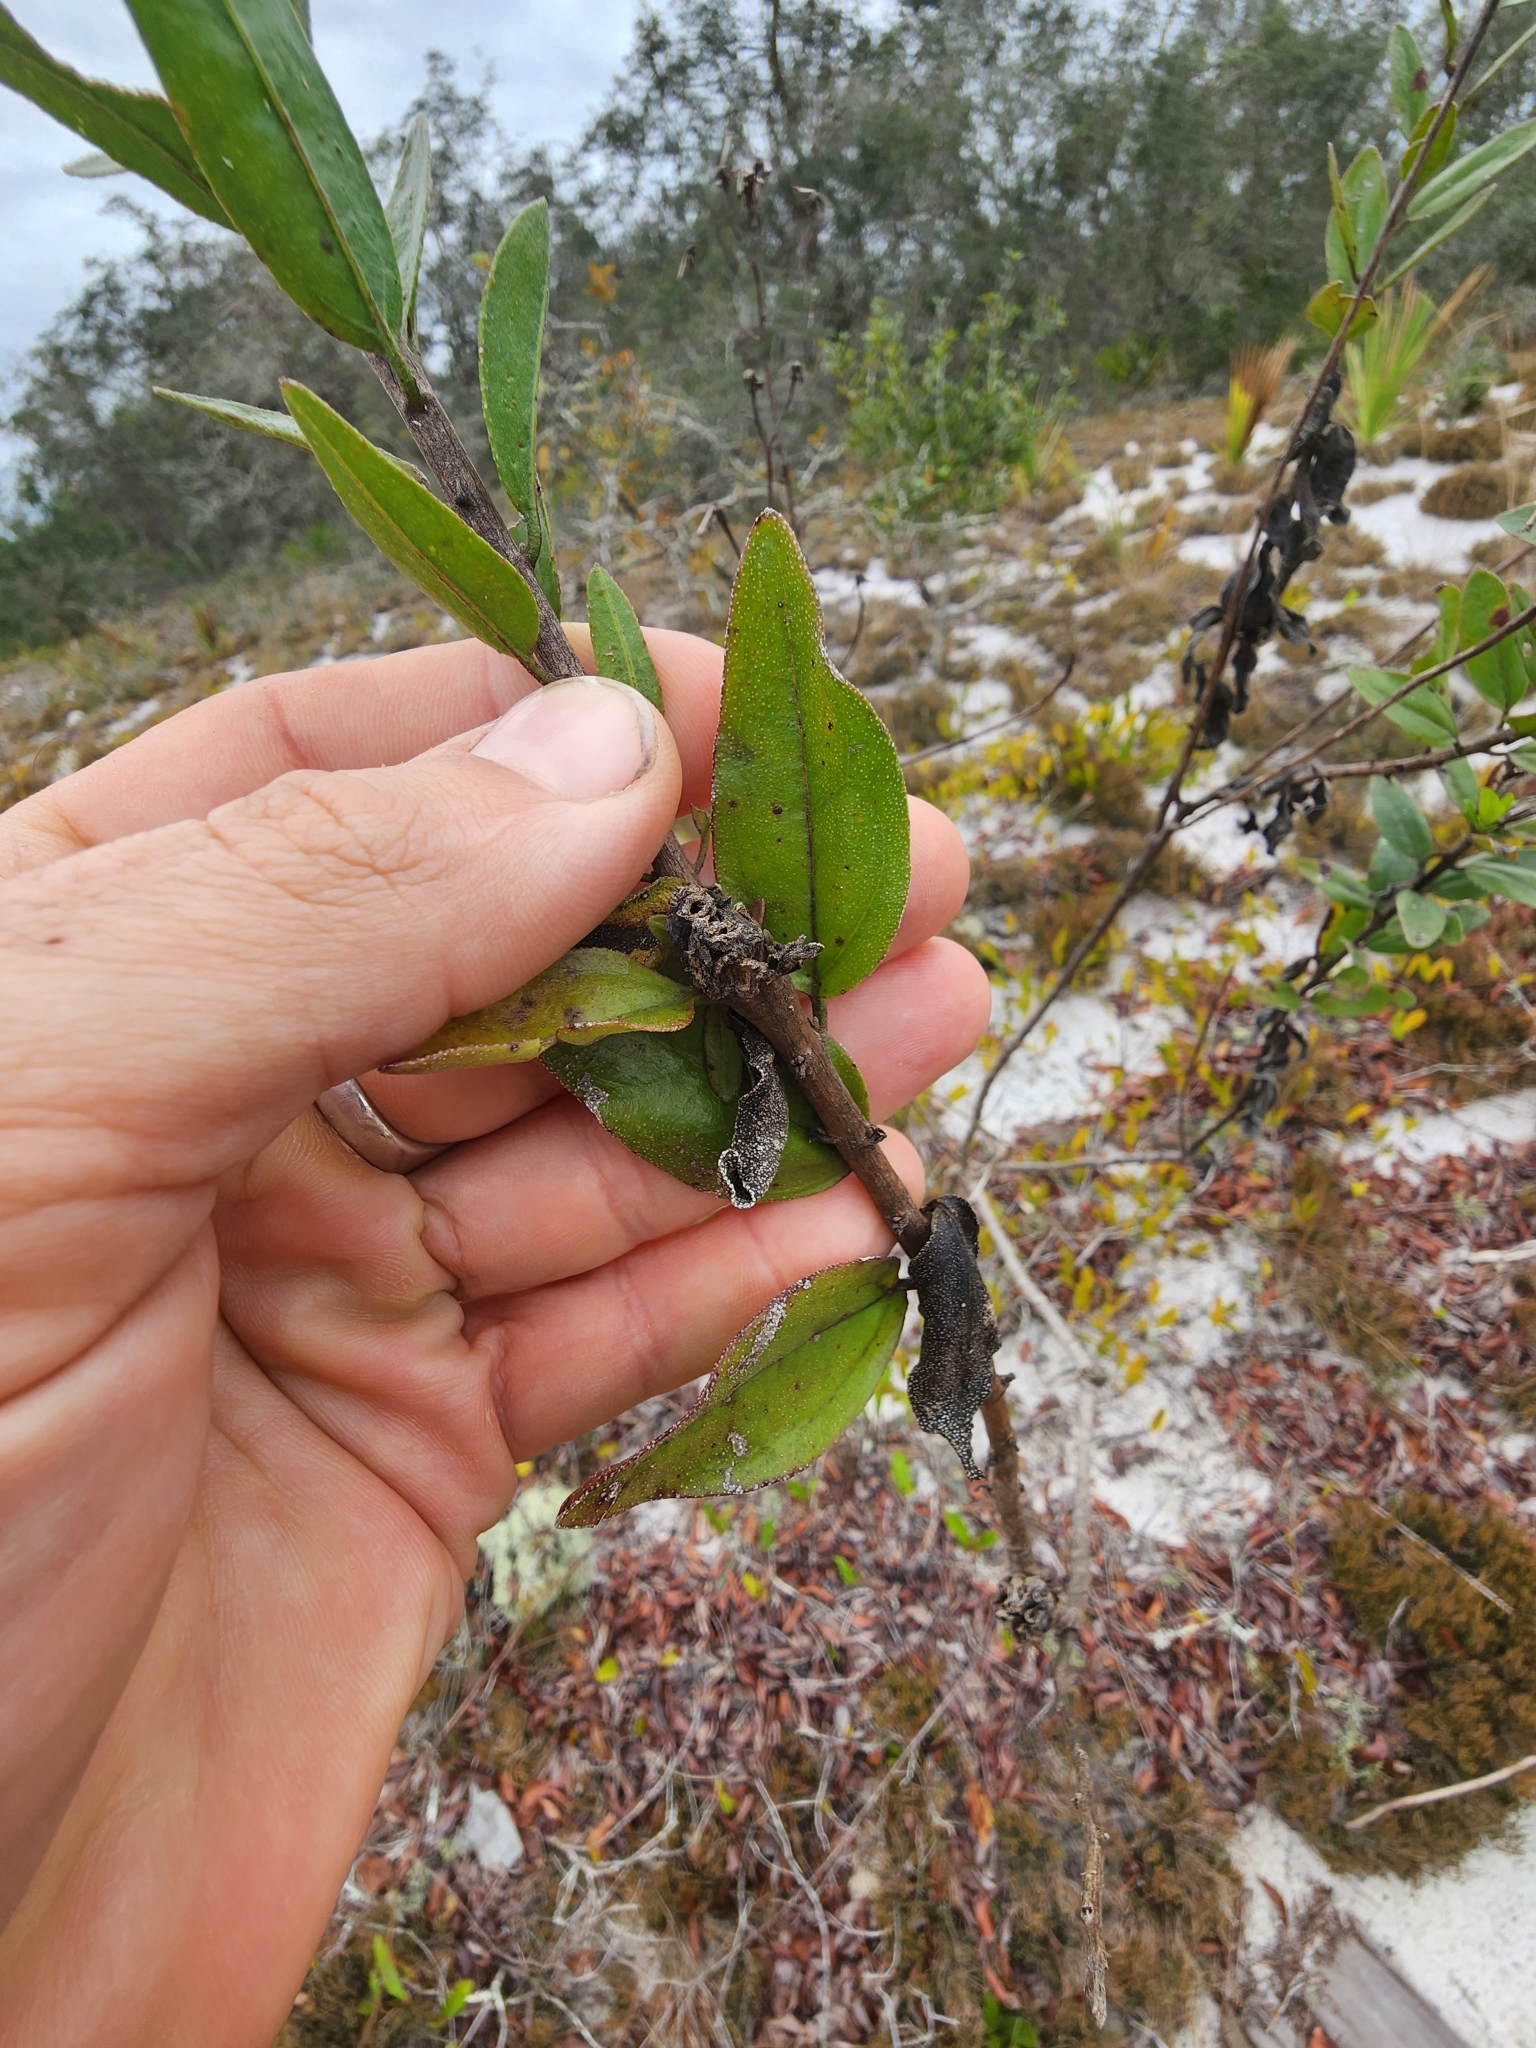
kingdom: Plantae
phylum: Tracheophyta
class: Magnoliopsida
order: Asterales
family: Asteraceae
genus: Palafoxia
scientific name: Palafoxia feayi
